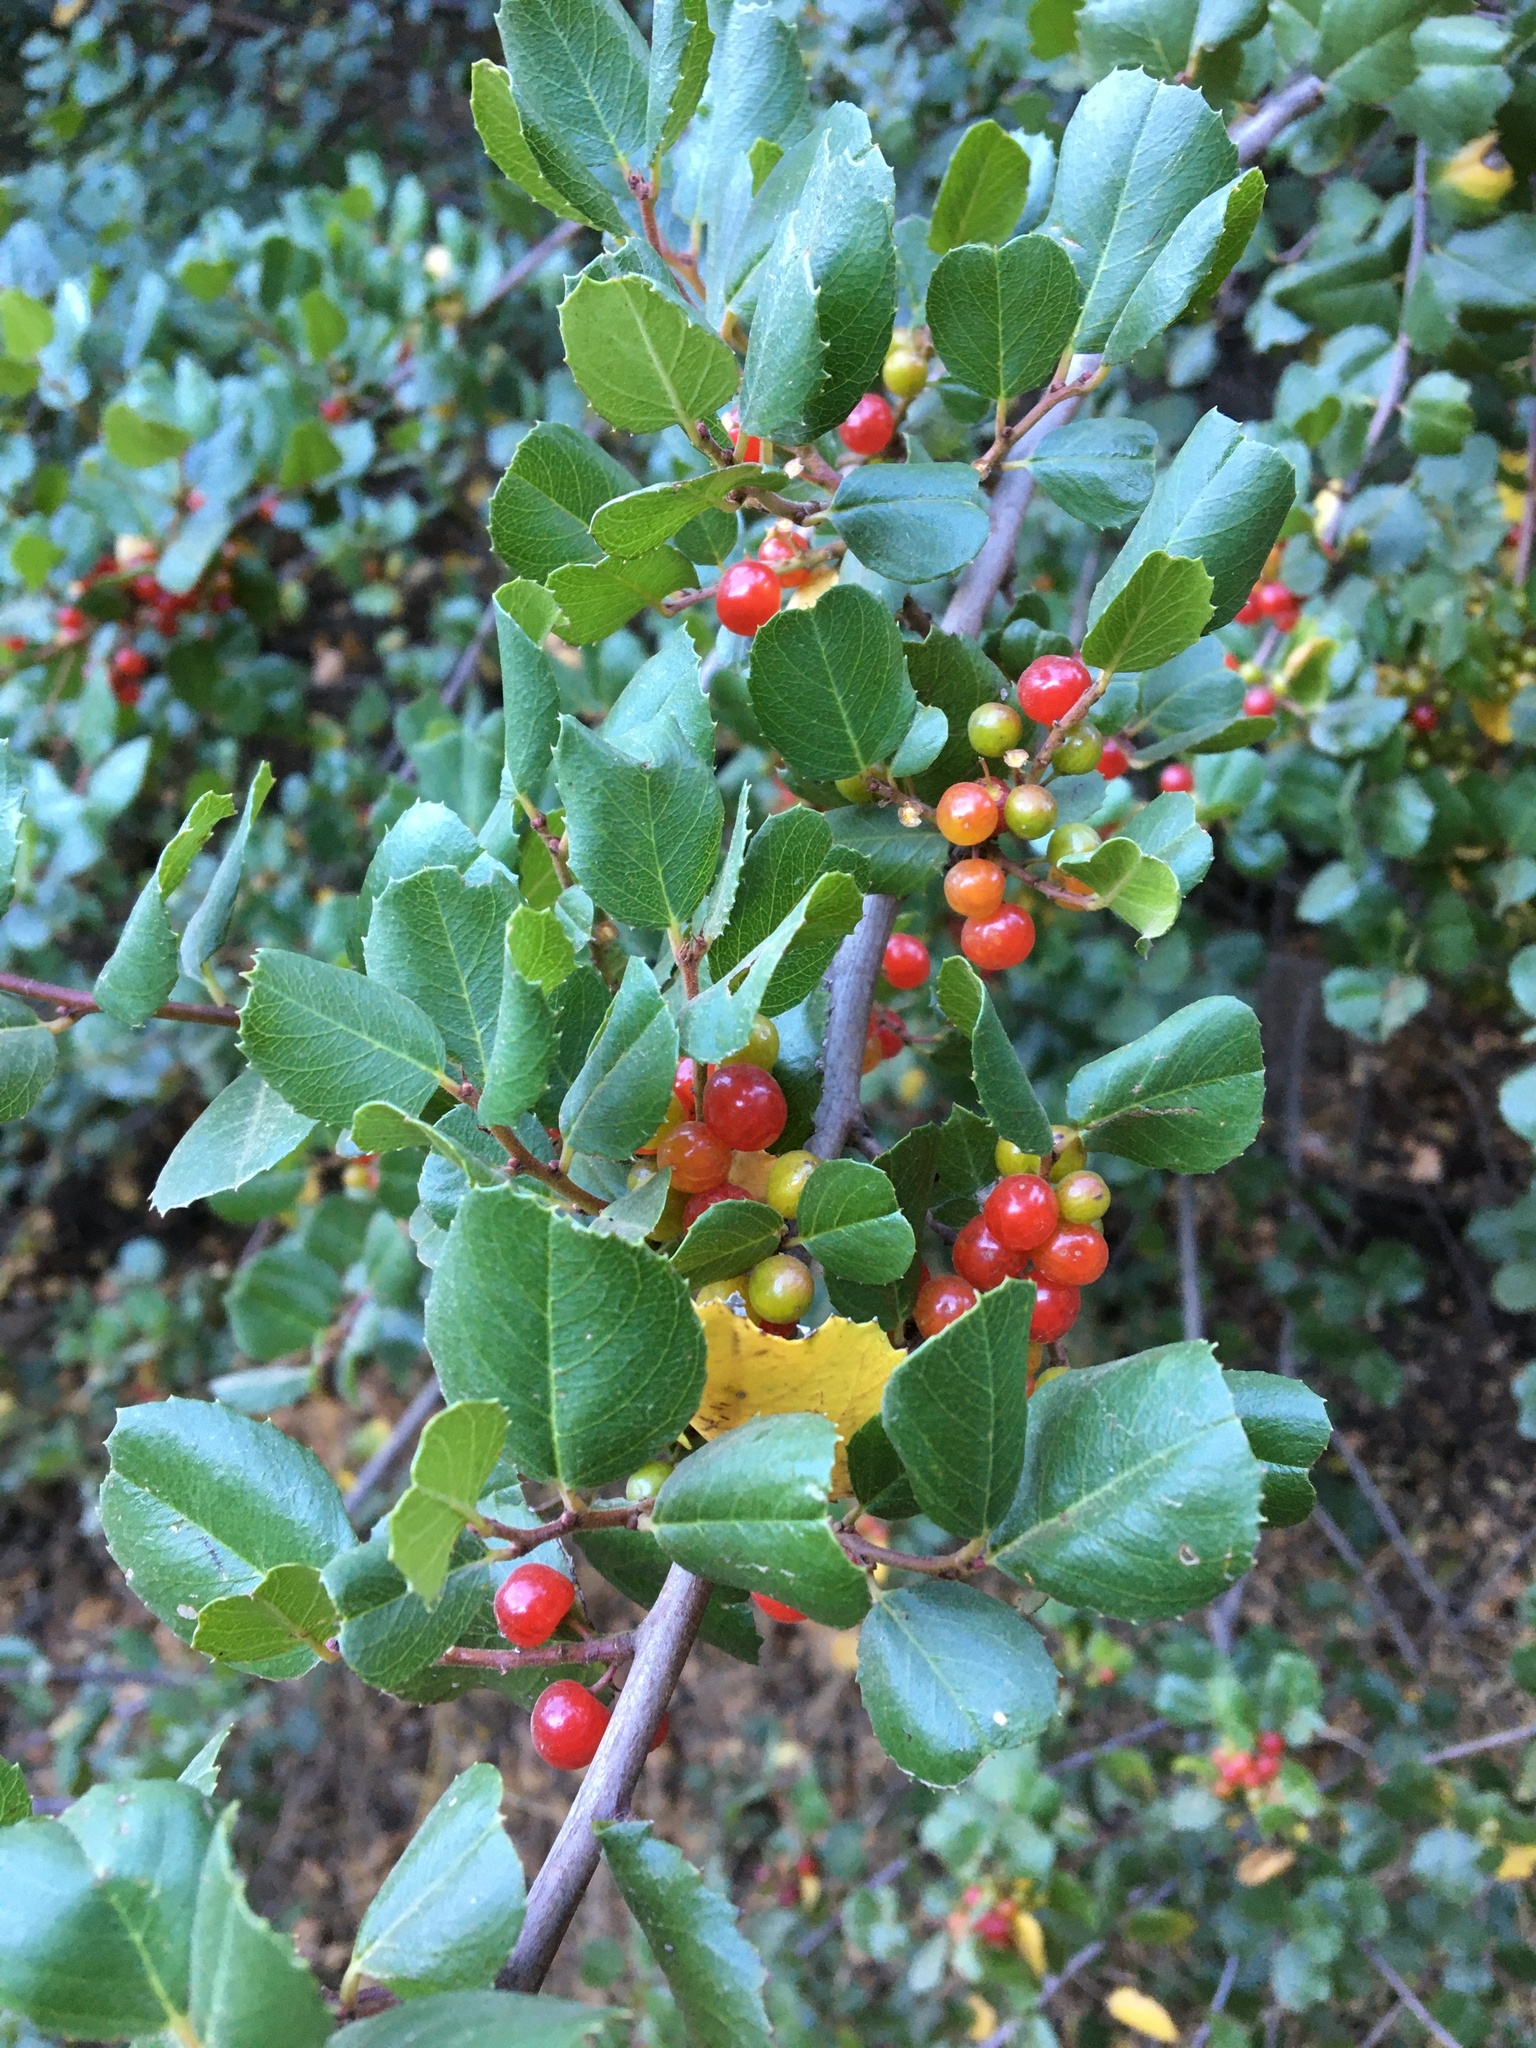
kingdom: Plantae
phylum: Tracheophyta
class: Magnoliopsida
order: Rosales
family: Rhamnaceae
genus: Endotropis
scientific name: Endotropis crocea
